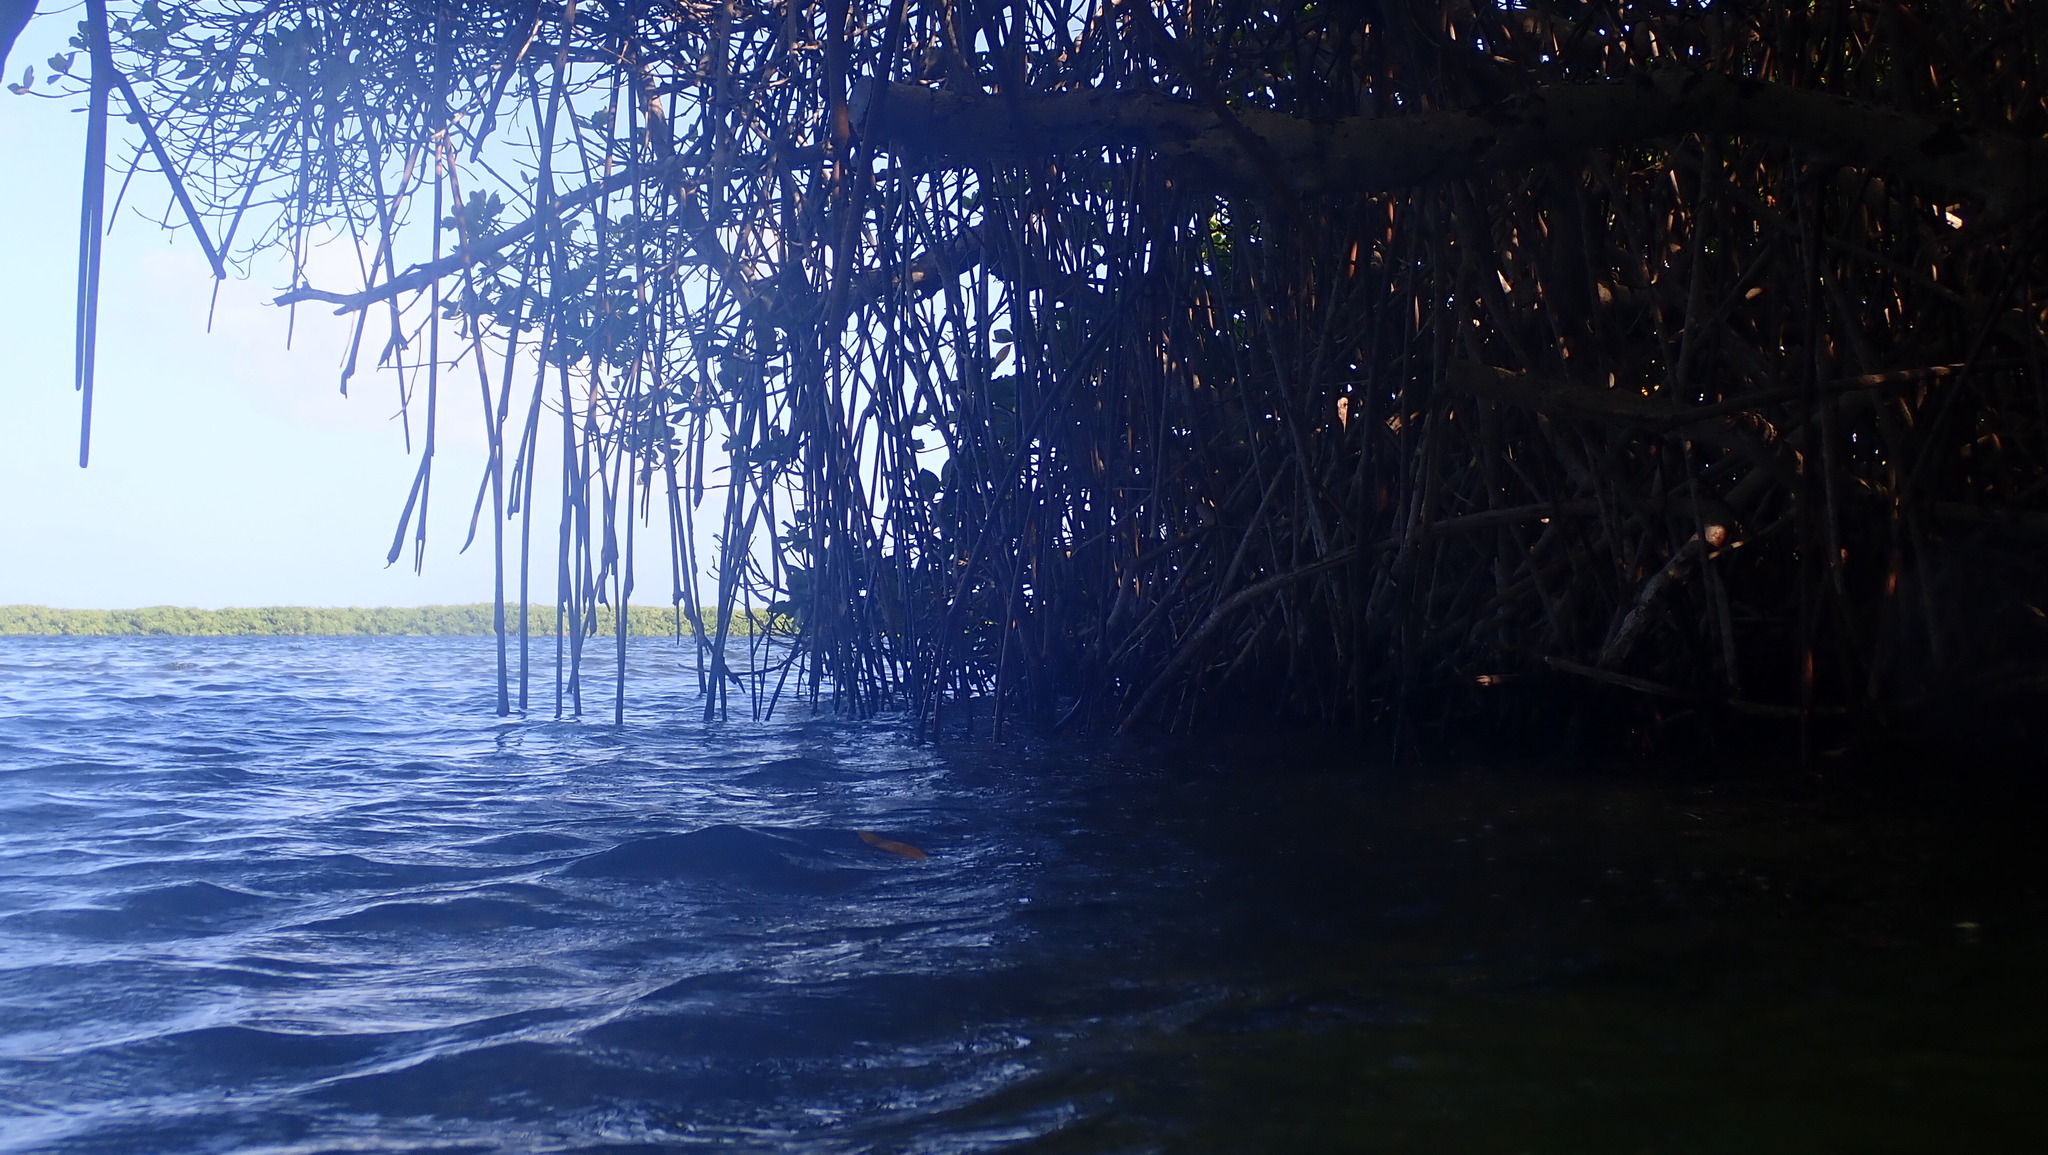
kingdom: Plantae
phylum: Tracheophyta
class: Magnoliopsida
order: Malpighiales
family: Rhizophoraceae
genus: Rhizophora
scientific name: Rhizophora mangle
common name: Red mangrove
